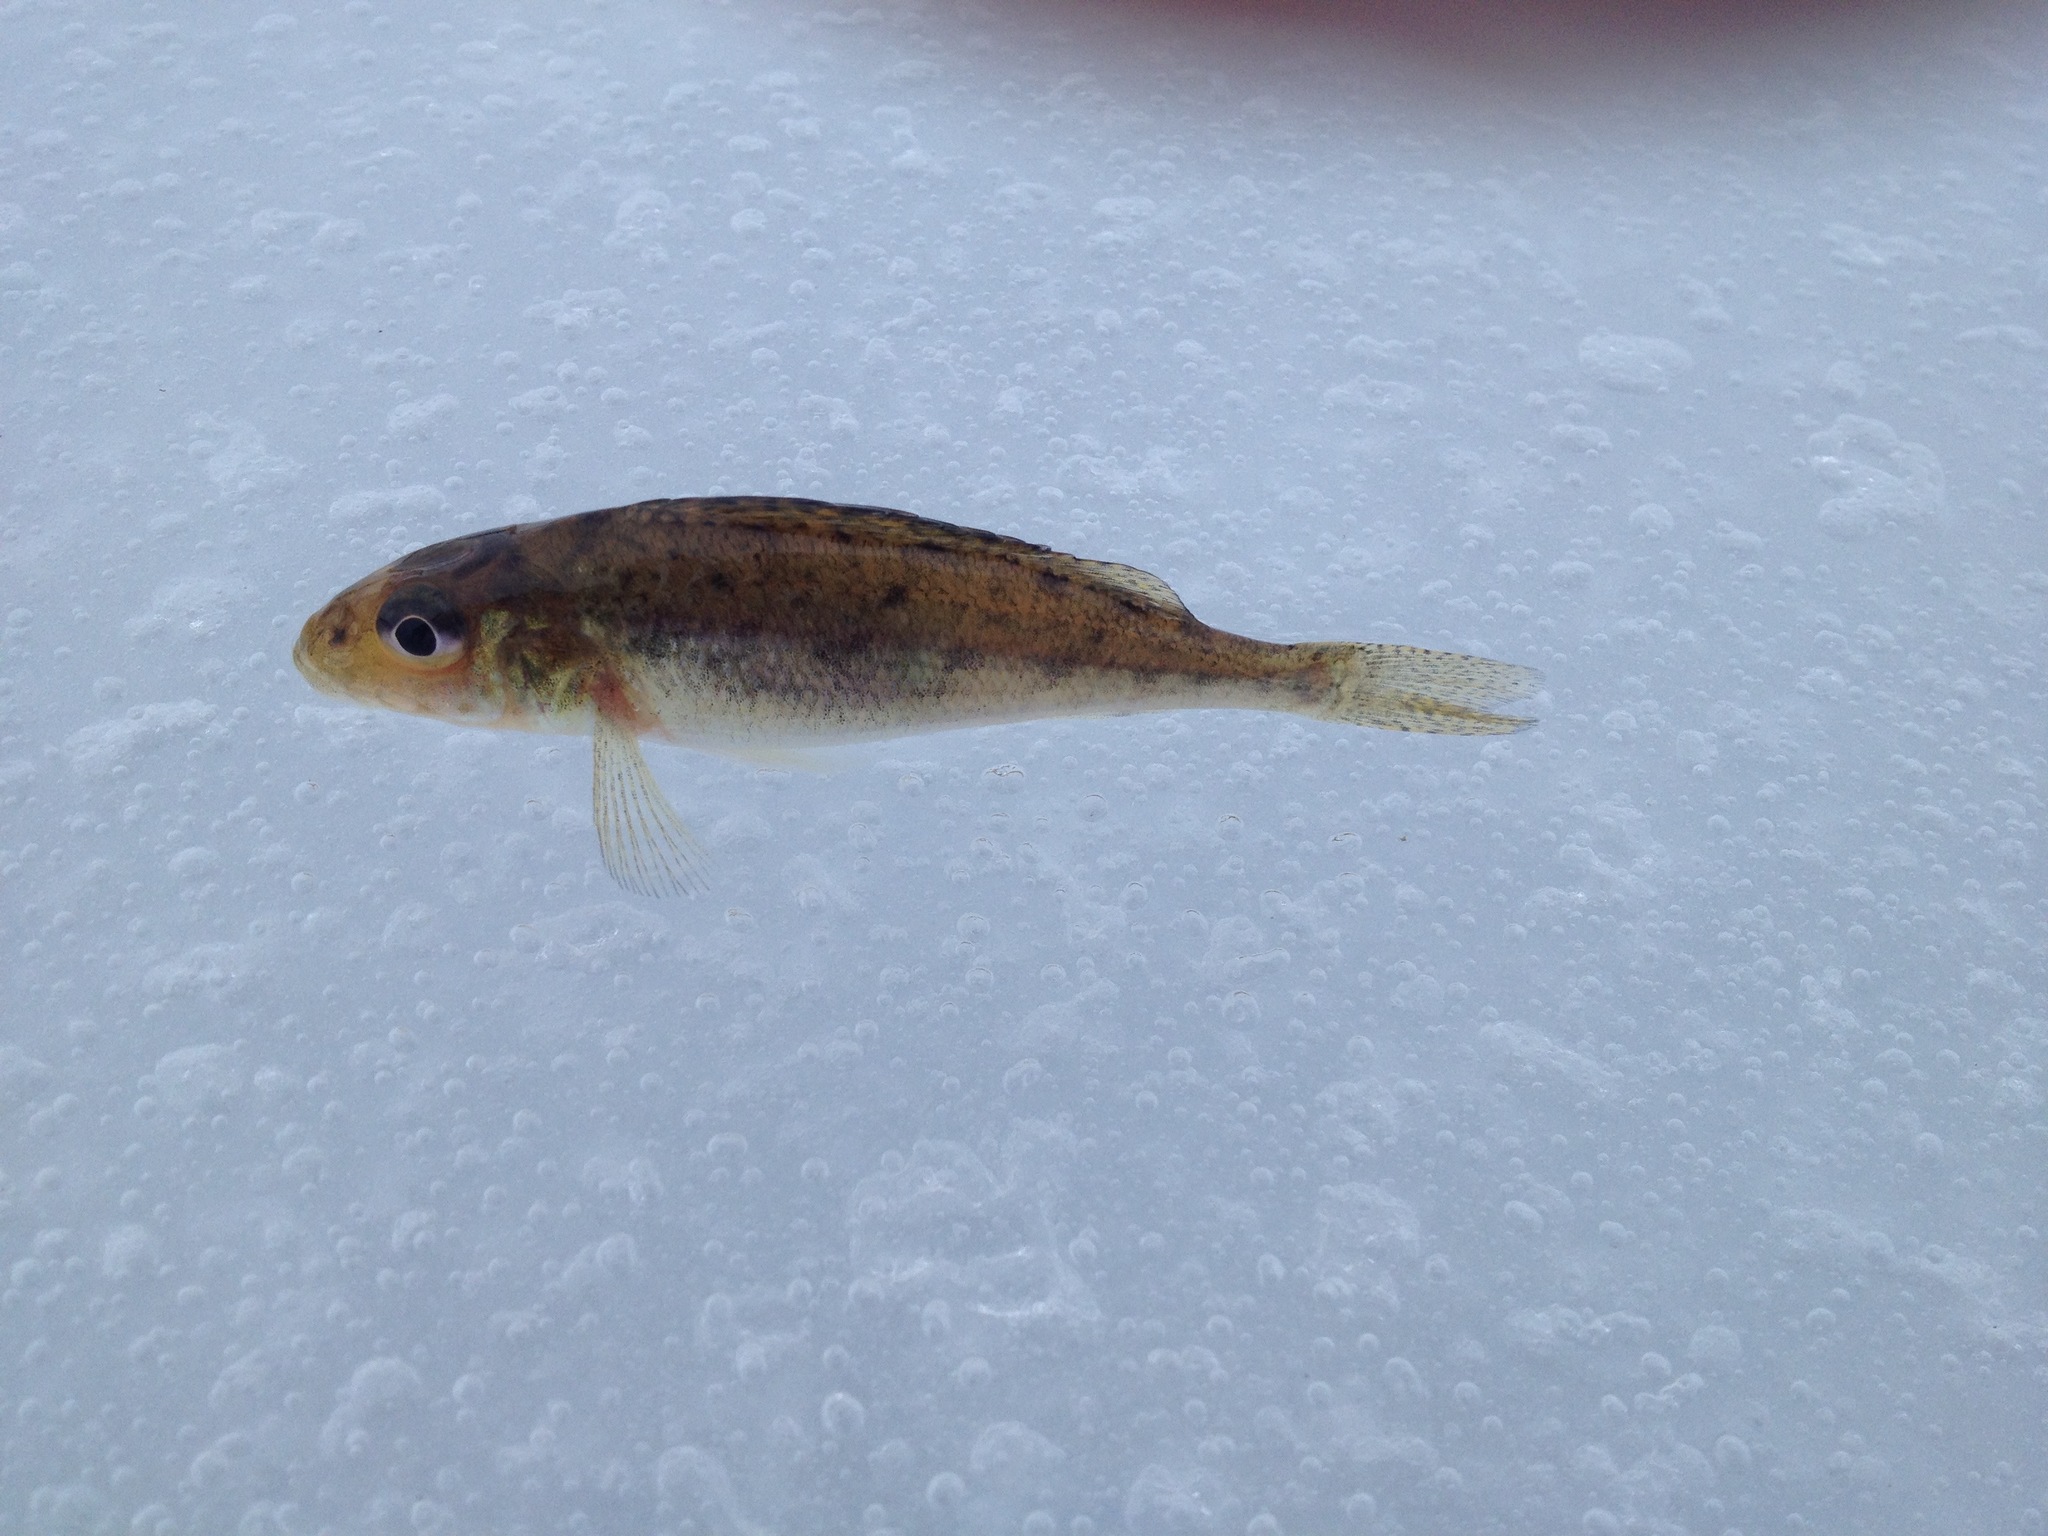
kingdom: Animalia
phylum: Chordata
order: Perciformes
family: Percidae
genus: Gymnocephalus
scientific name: Gymnocephalus cernua
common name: Ruffe
